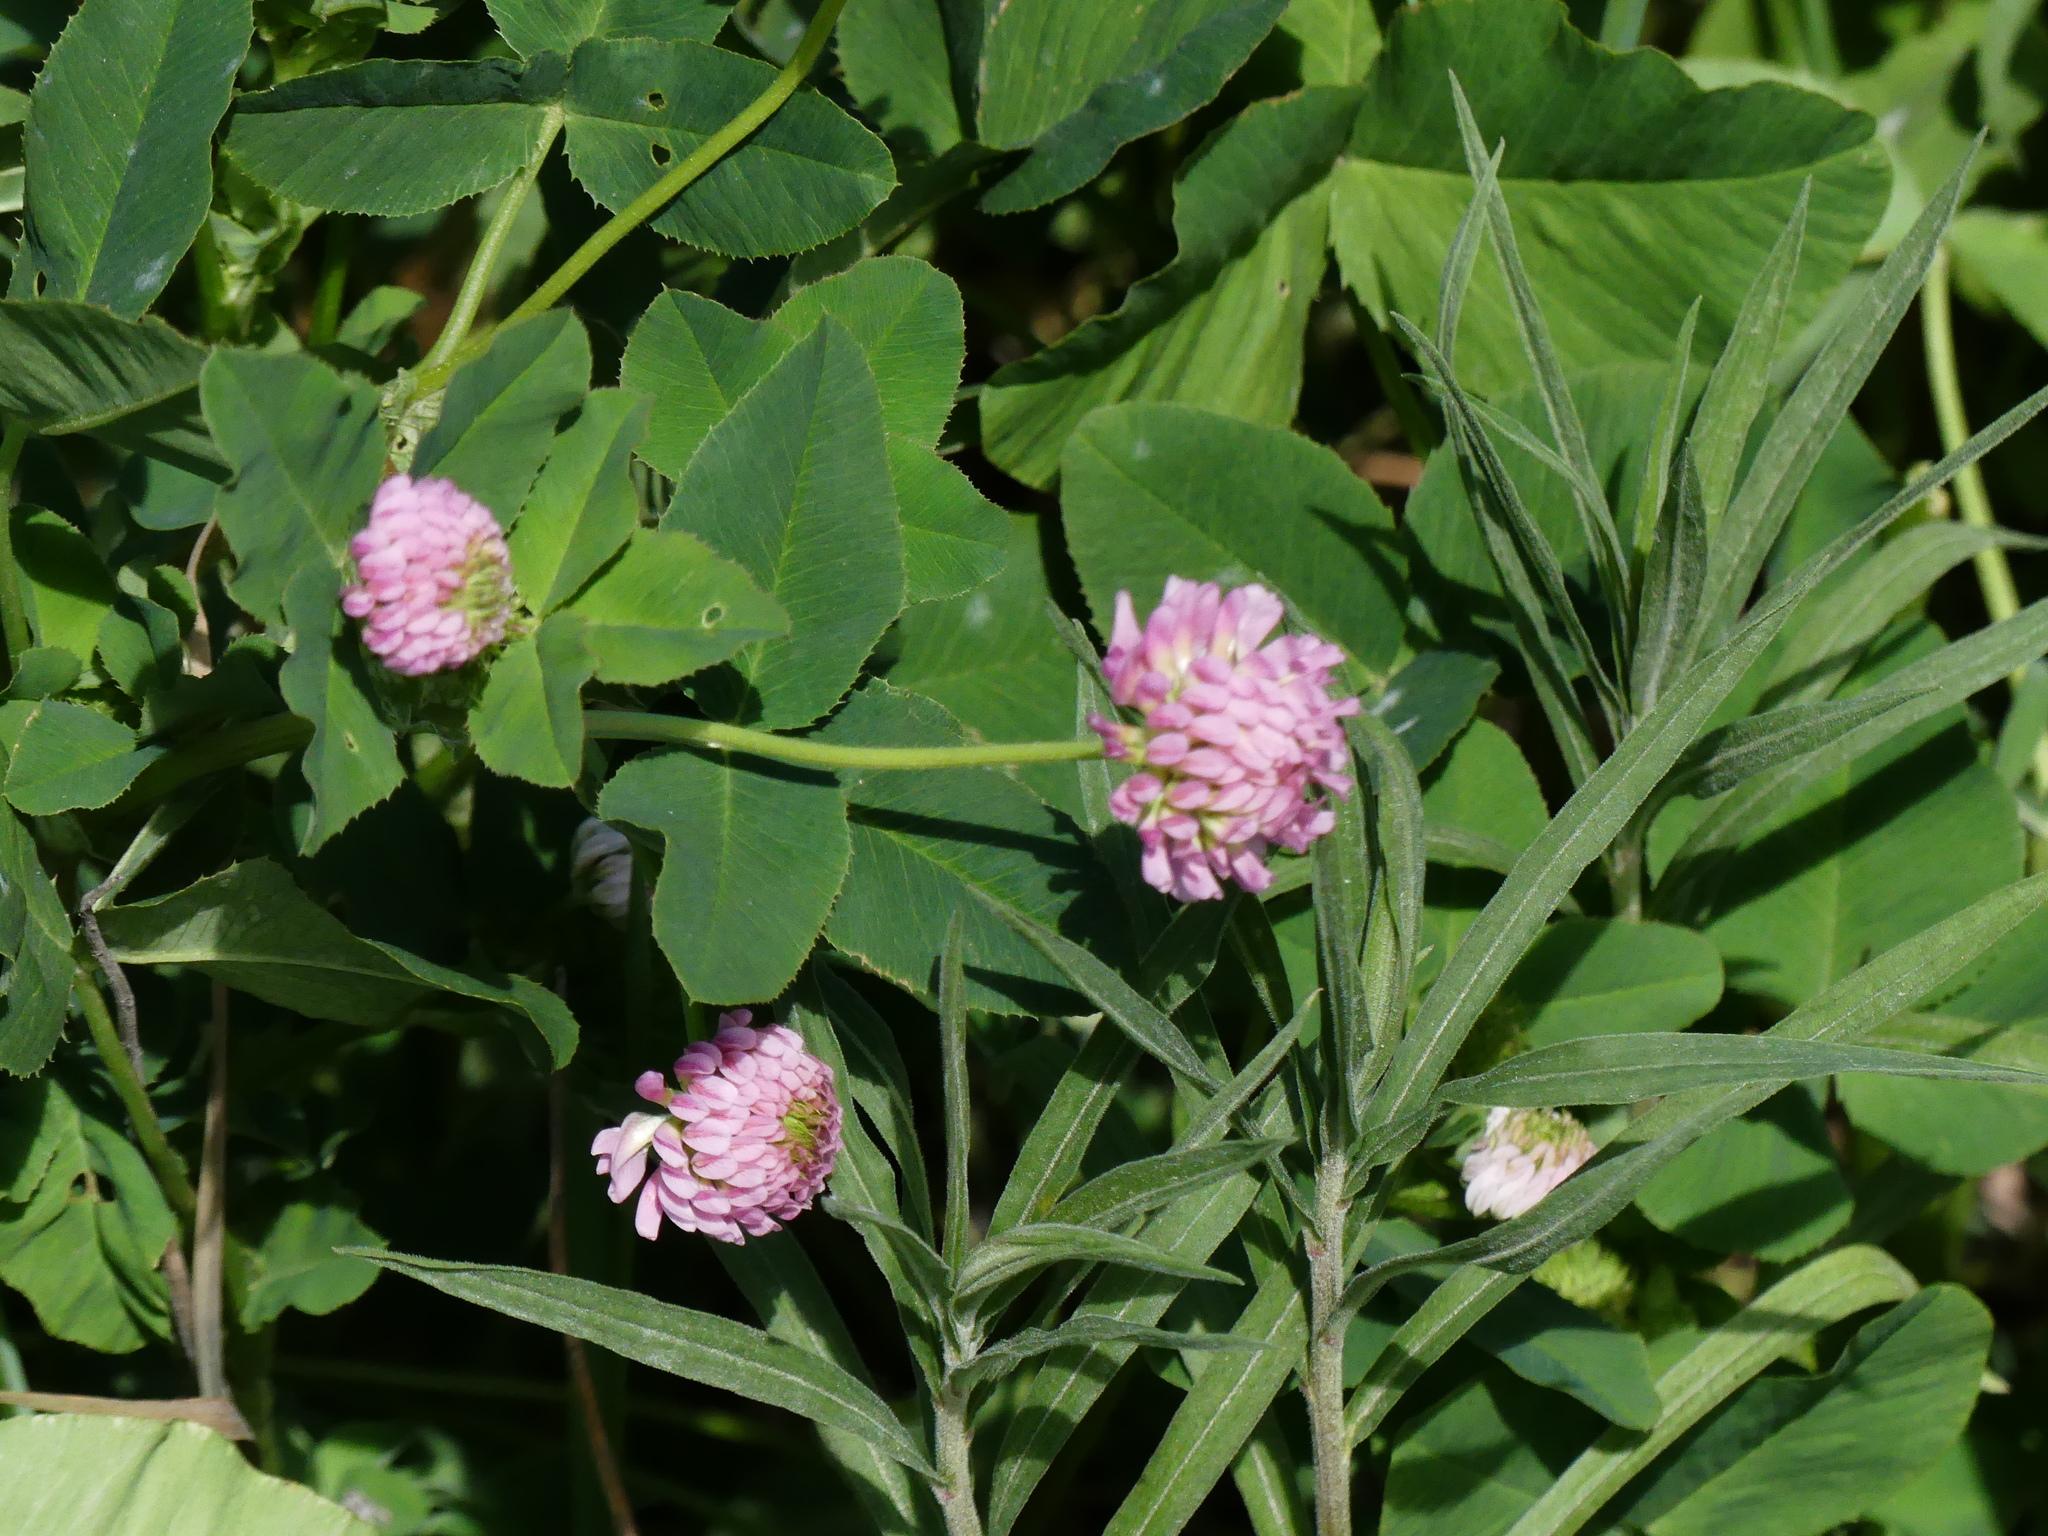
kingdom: Plantae
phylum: Tracheophyta
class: Magnoliopsida
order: Fabales
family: Fabaceae
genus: Trifolium
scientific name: Trifolium hybridum
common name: Alsike clover
